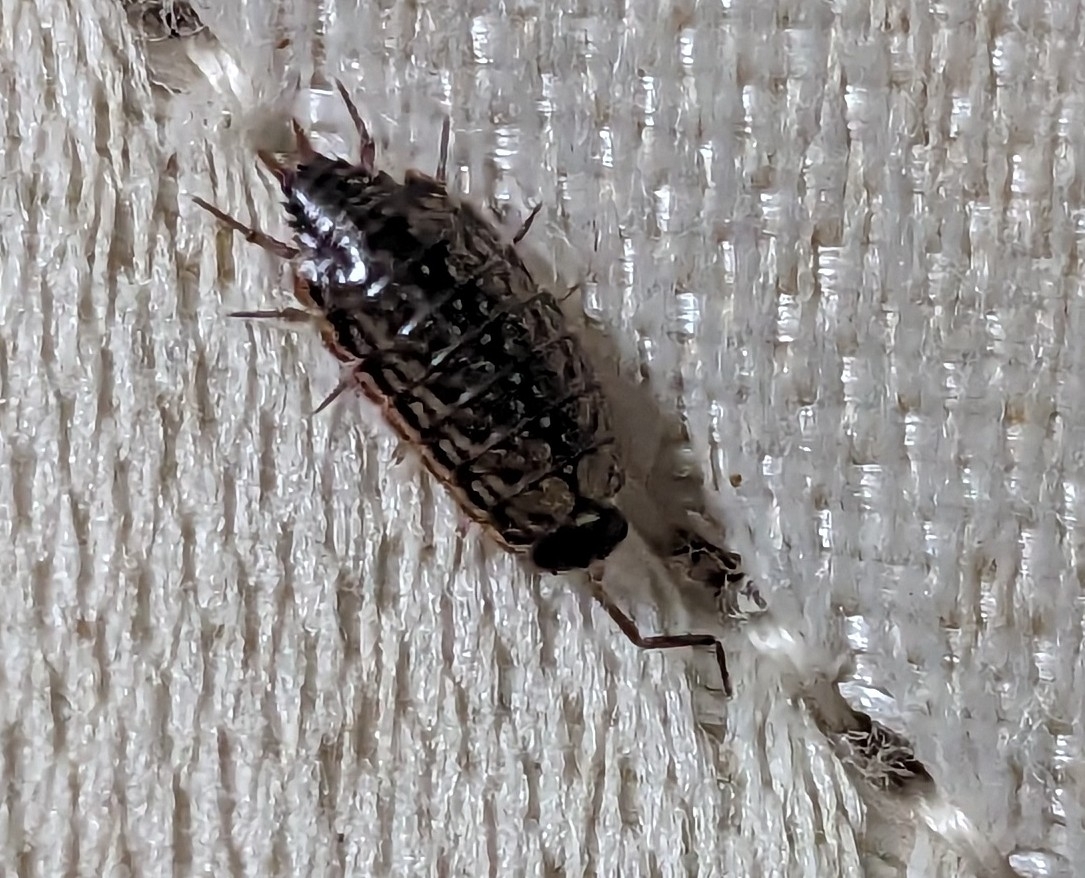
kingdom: Animalia
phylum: Arthropoda
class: Malacostraca
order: Isopoda
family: Philosciidae
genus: Philoscia
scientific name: Philoscia muscorum
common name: Common striped woodlouse
